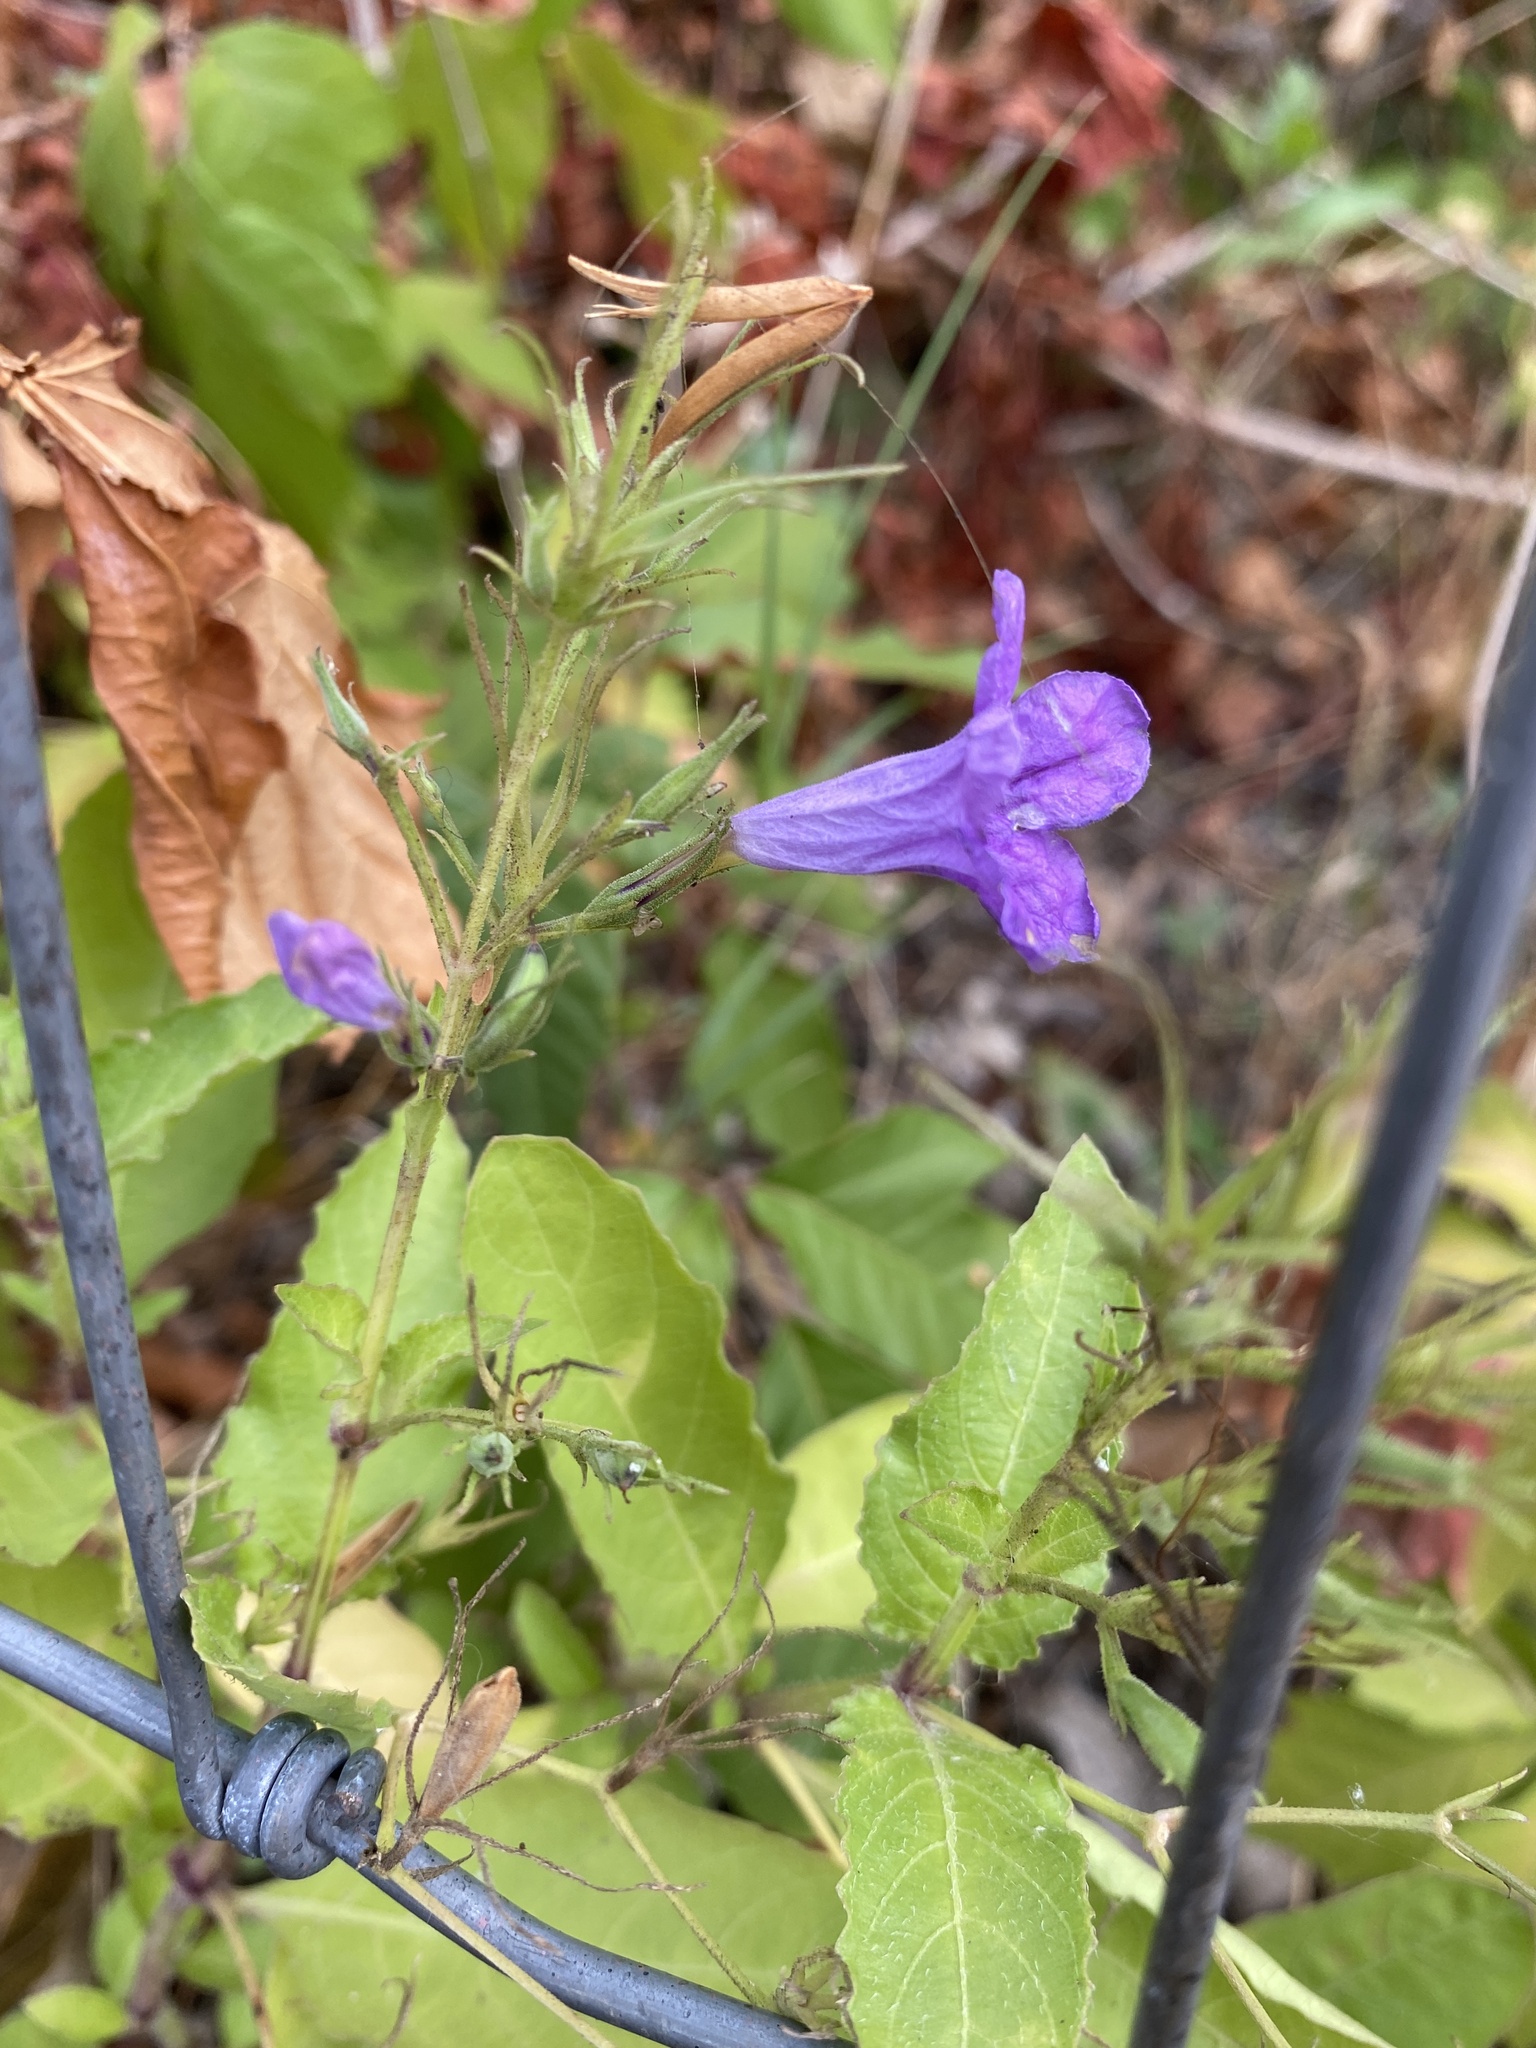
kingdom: Plantae
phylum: Tracheophyta
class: Magnoliopsida
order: Lamiales
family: Acanthaceae
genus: Ruellia
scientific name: Ruellia ciliatiflora
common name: Hairyflower wild petunia
